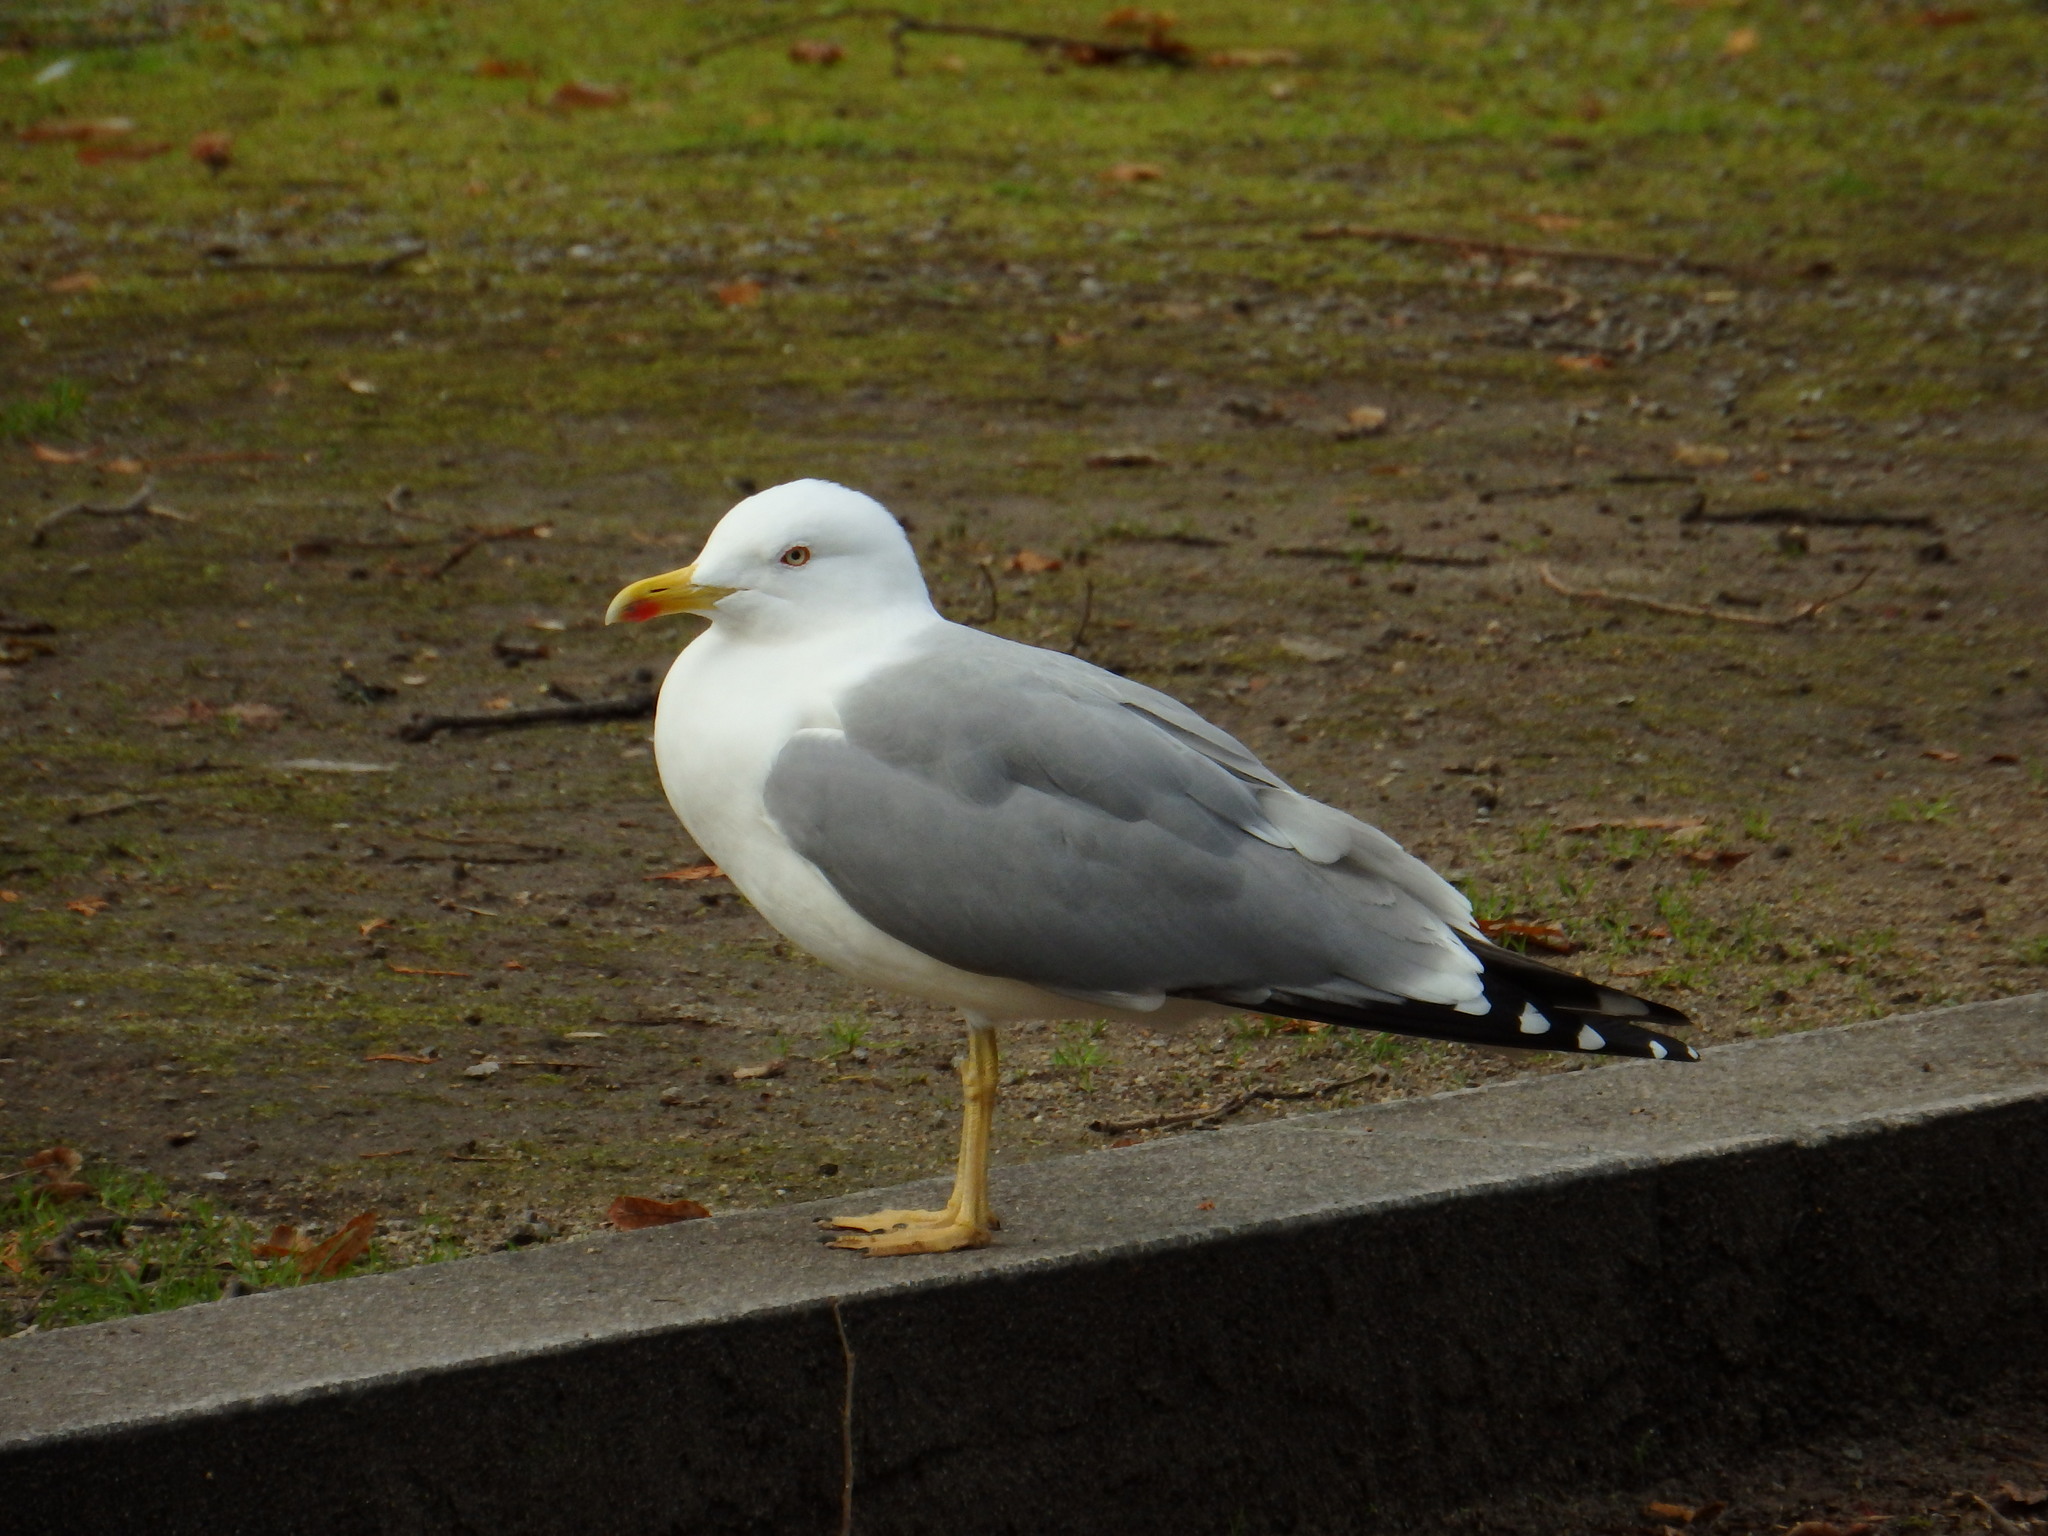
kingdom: Animalia
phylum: Chordata
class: Aves
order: Charadriiformes
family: Laridae
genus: Larus
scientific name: Larus michahellis
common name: Yellow-legged gull
